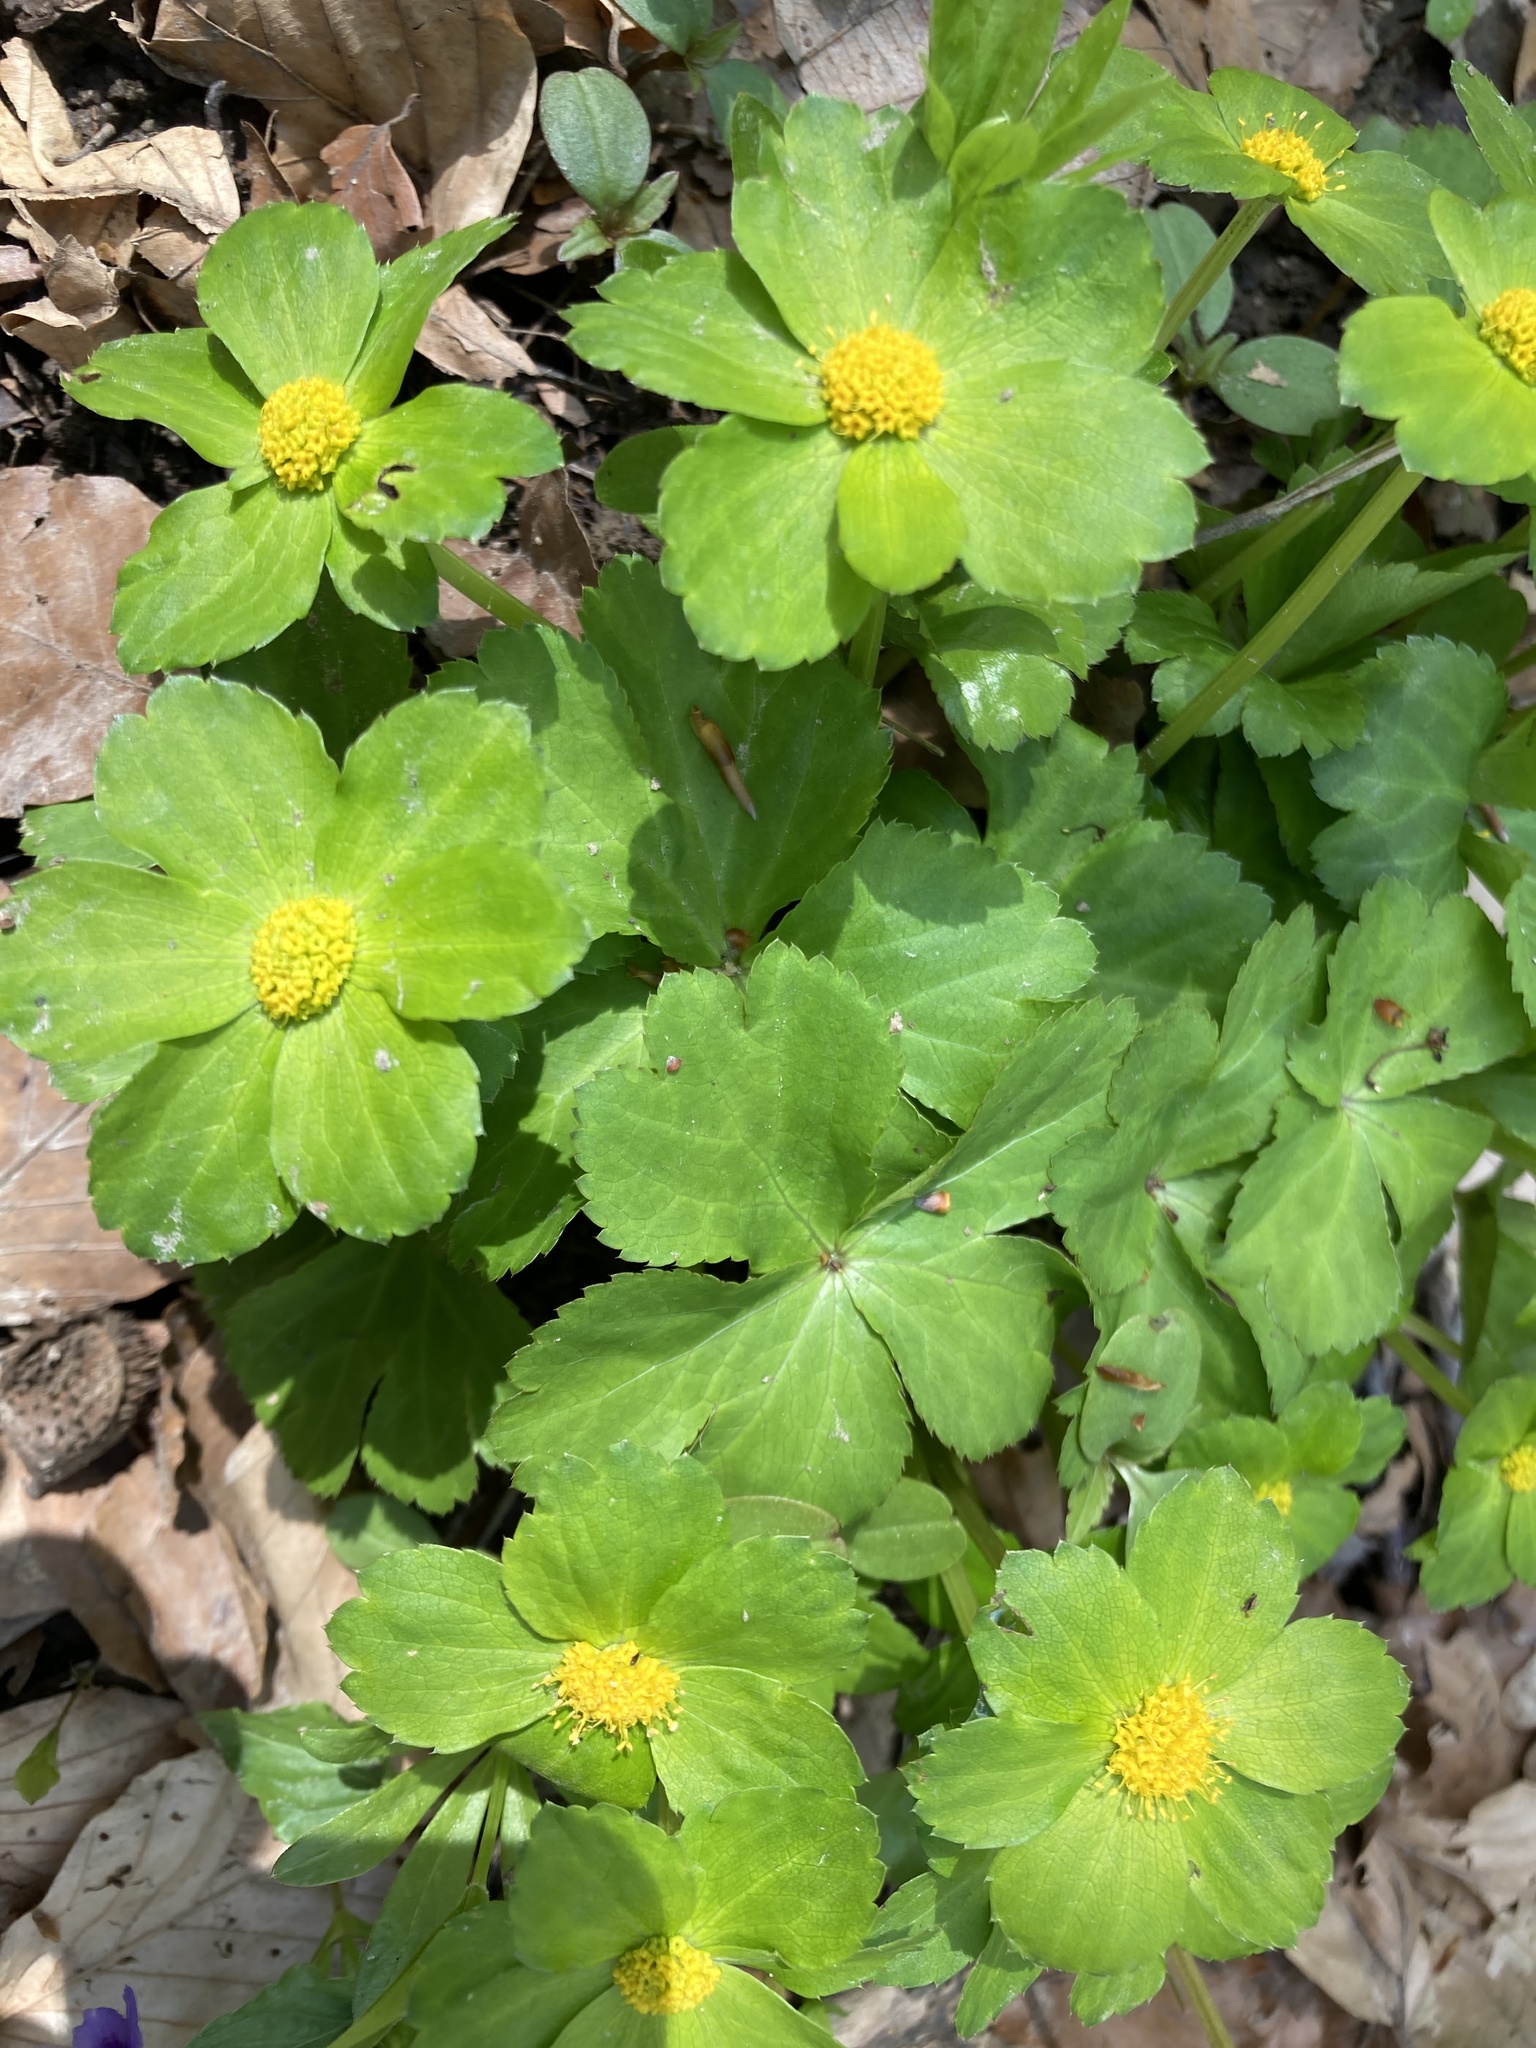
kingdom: Plantae
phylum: Tracheophyta
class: Magnoliopsida
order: Apiales
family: Apiaceae
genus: Sanicula
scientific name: Sanicula epipactis
